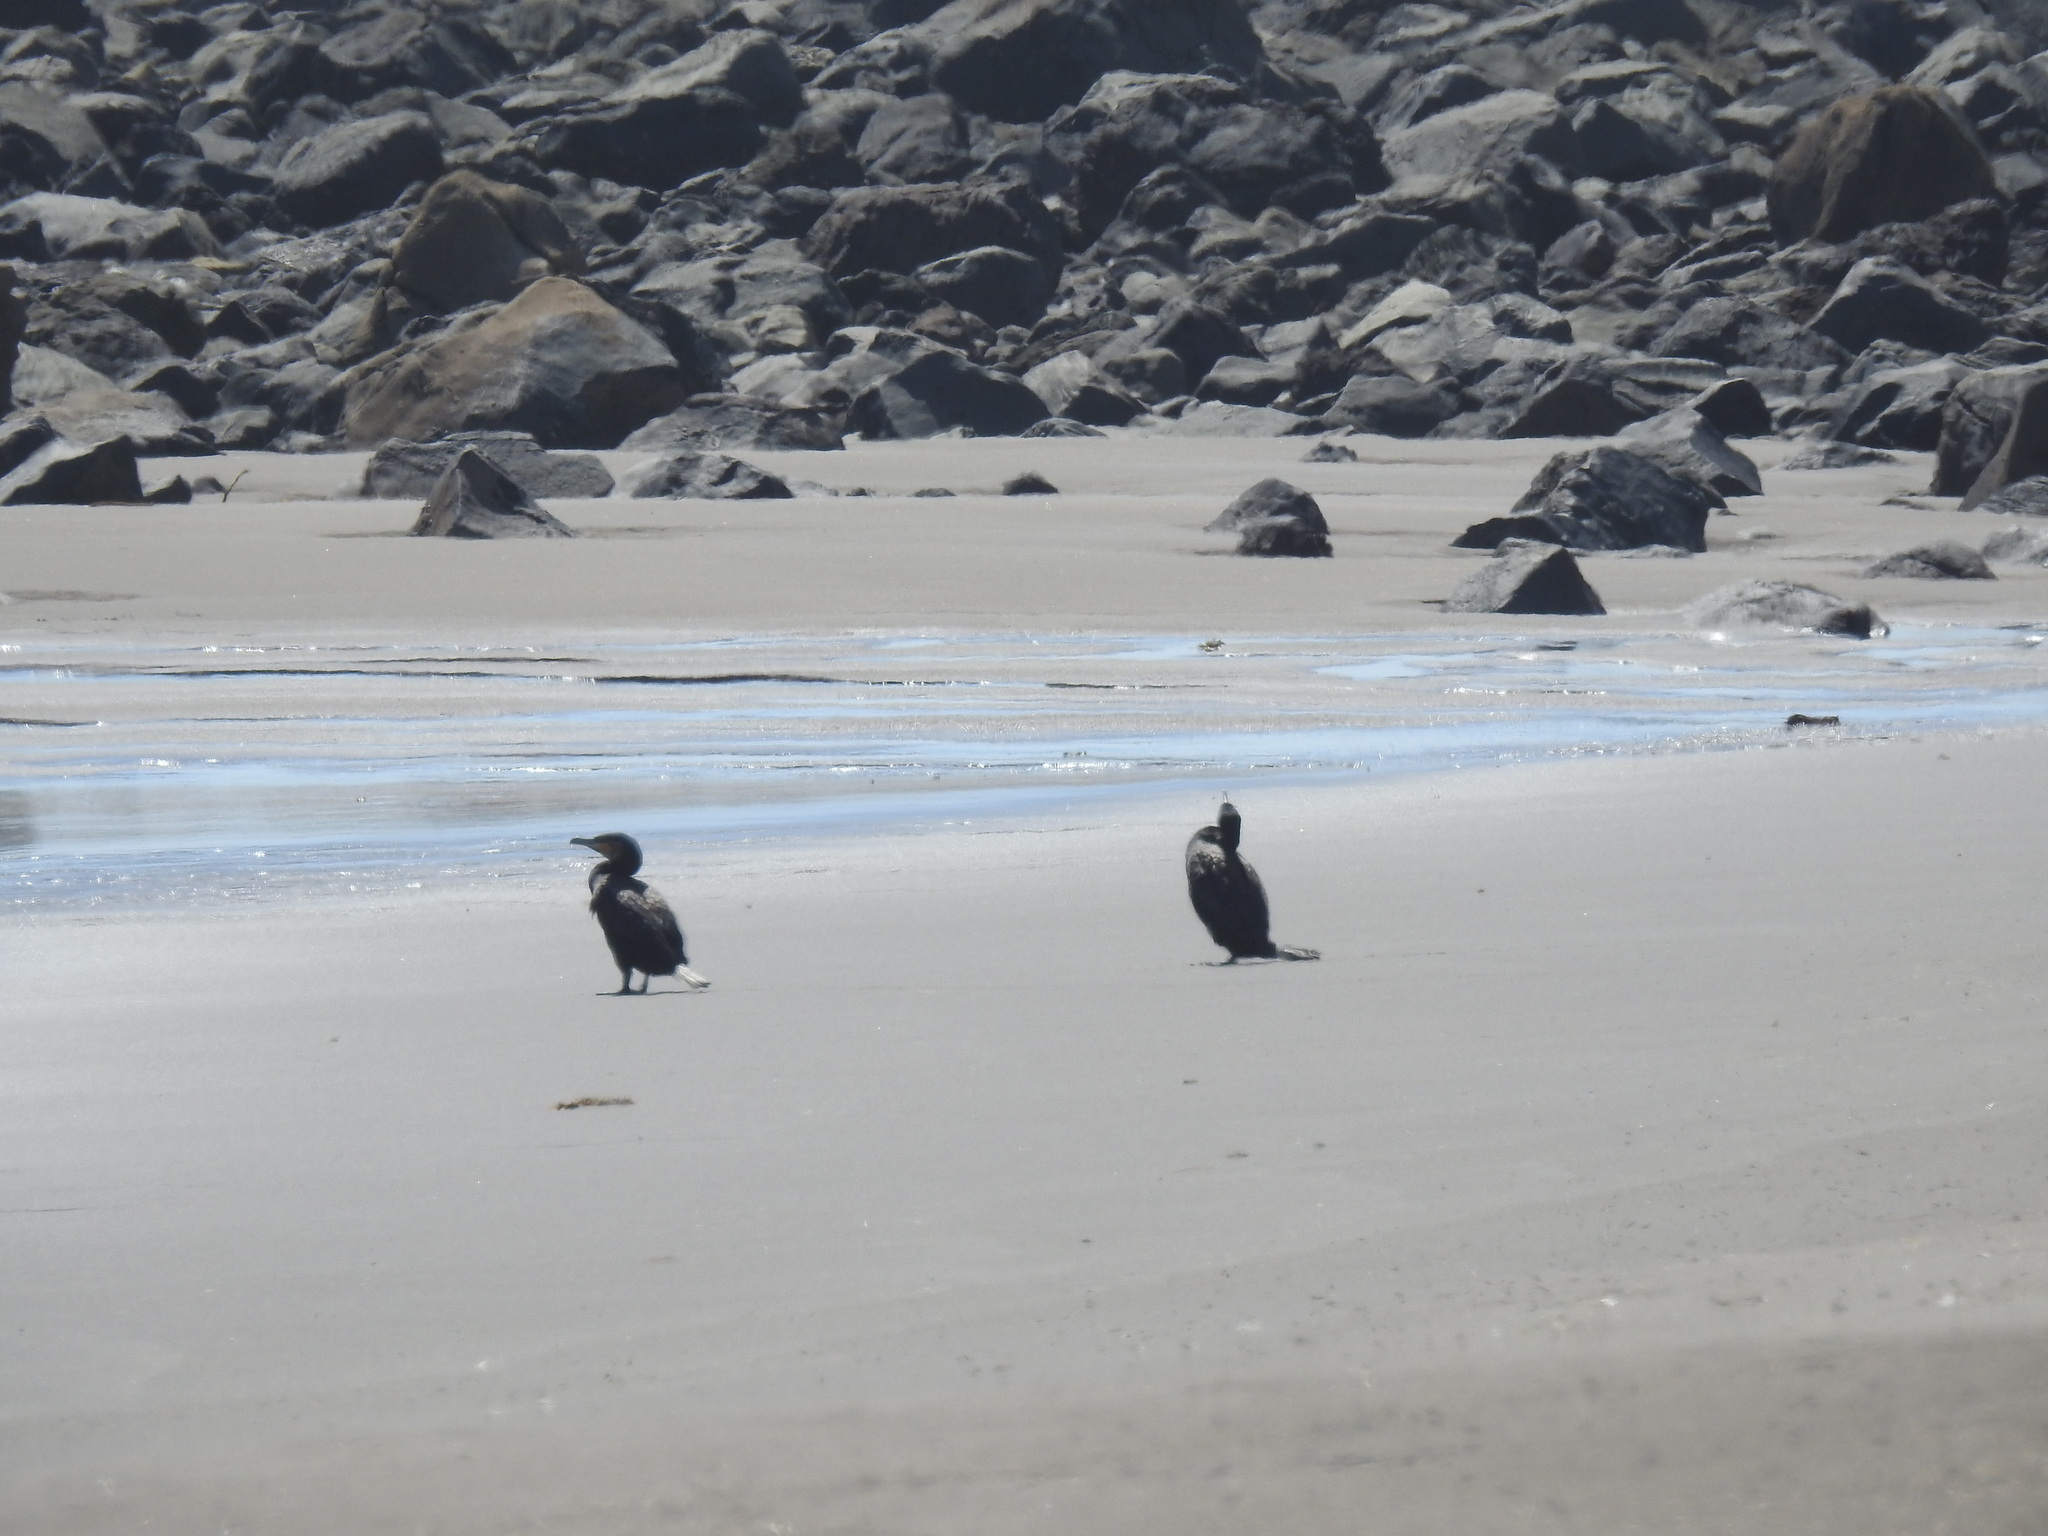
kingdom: Animalia
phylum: Chordata
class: Aves
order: Suliformes
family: Phalacrocoracidae
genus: Phalacrocorax
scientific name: Phalacrocorax carbo
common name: Great cormorant
